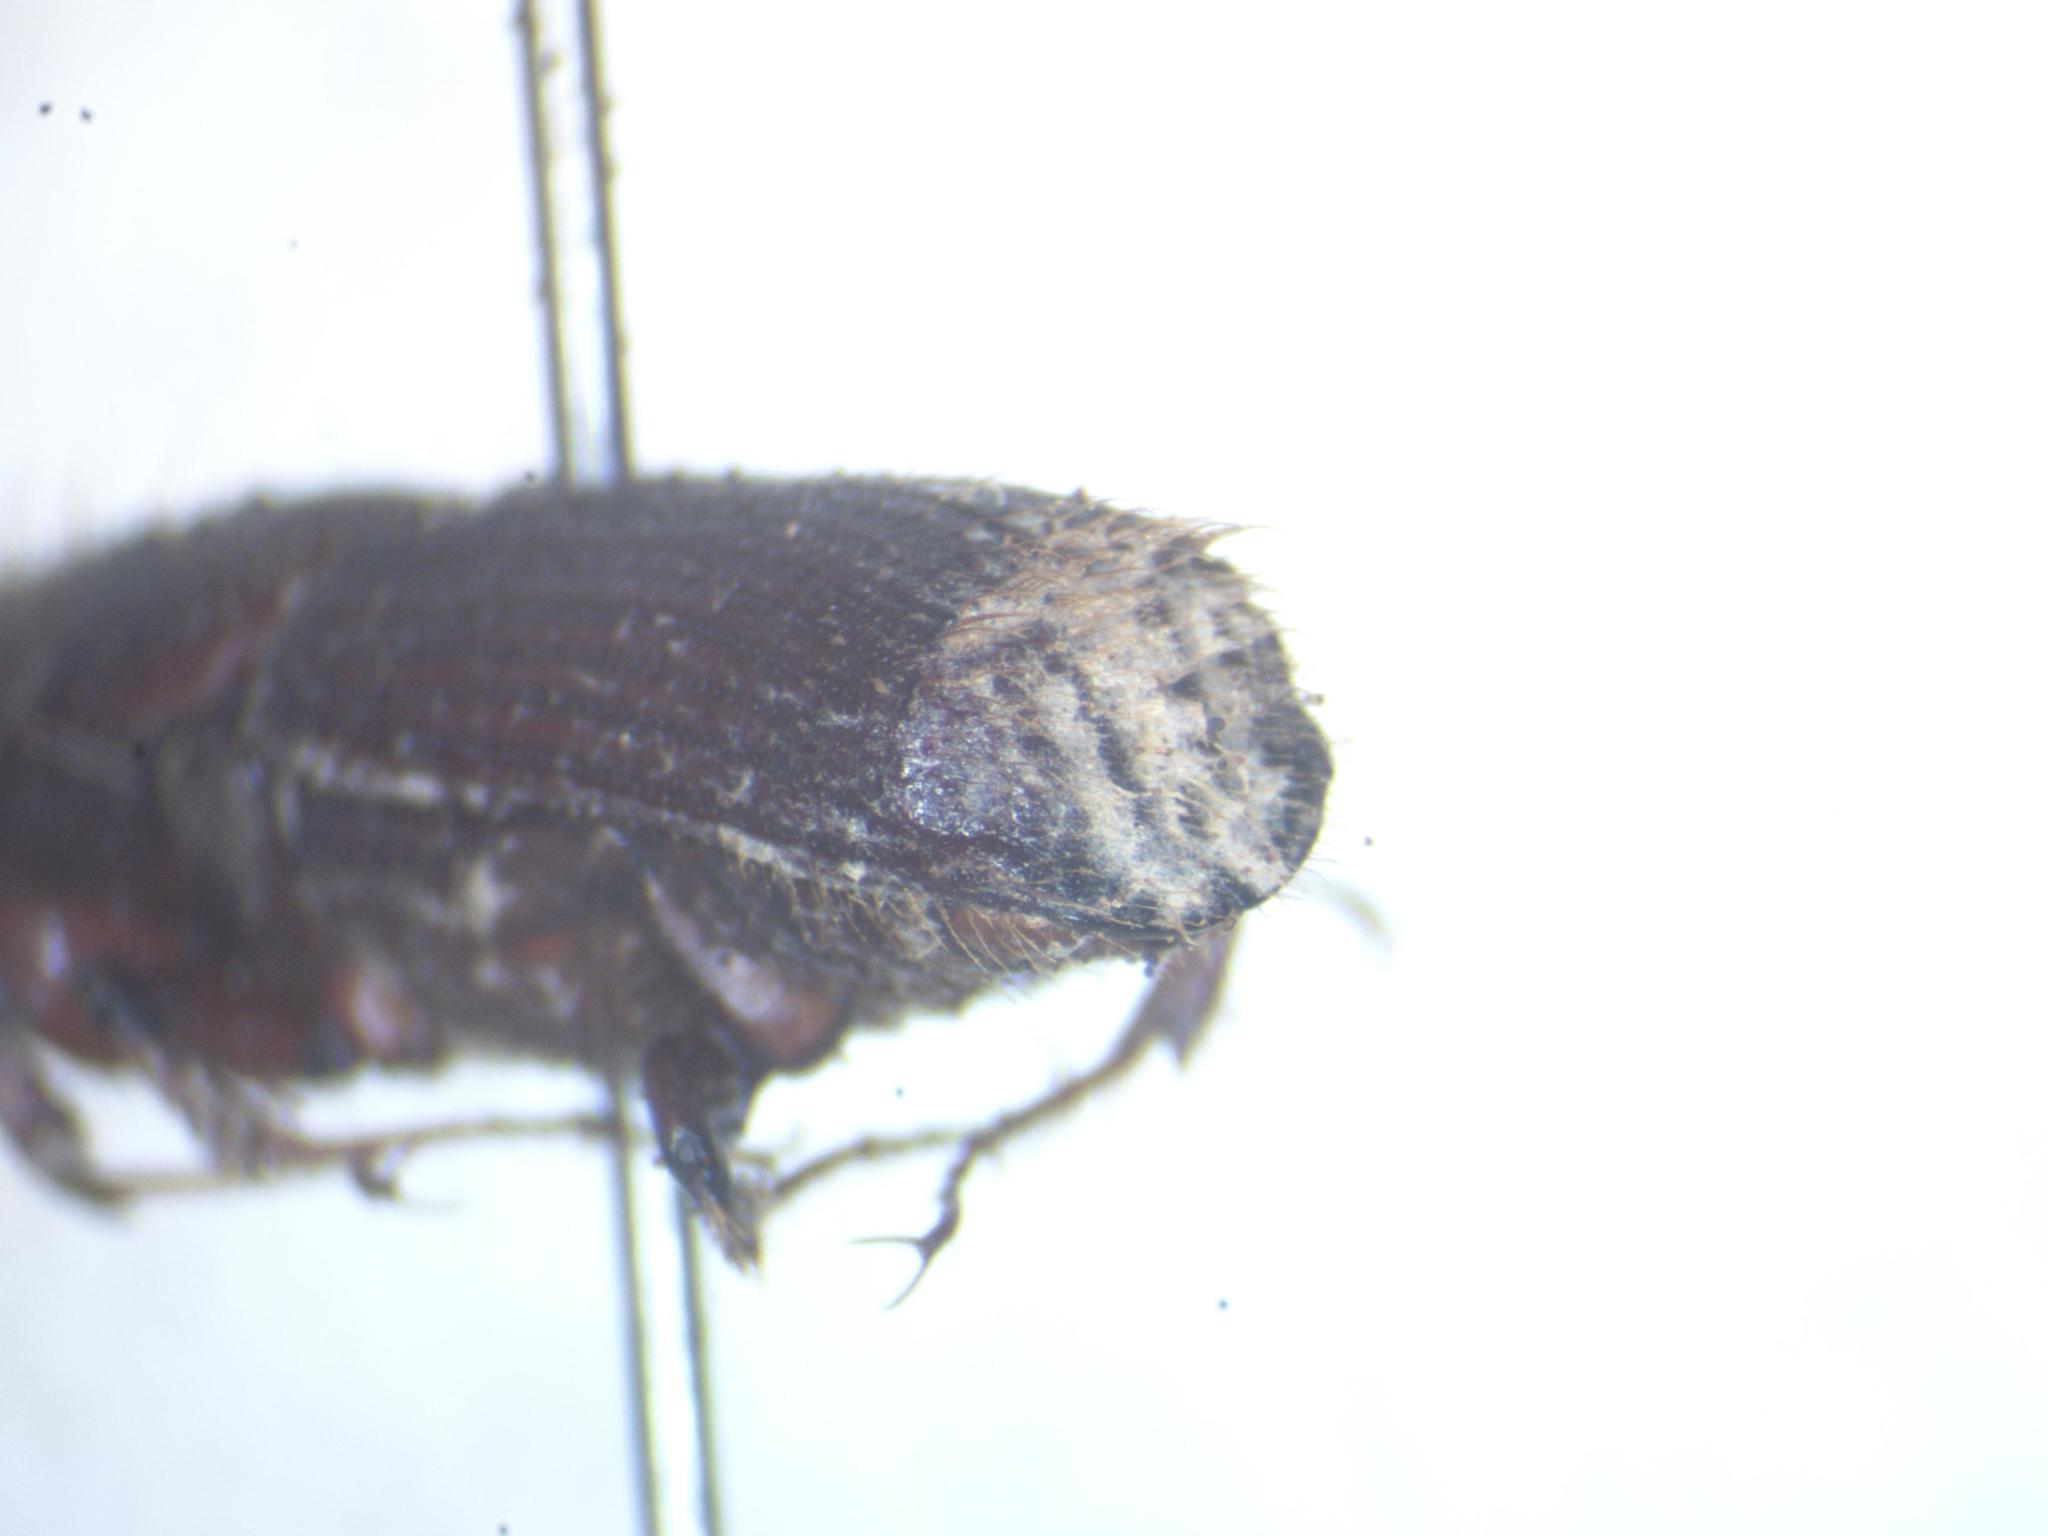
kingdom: Animalia
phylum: Arthropoda
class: Insecta
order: Coleoptera
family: Curculionidae
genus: Tesserocerus
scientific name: Tesserocerus belti
